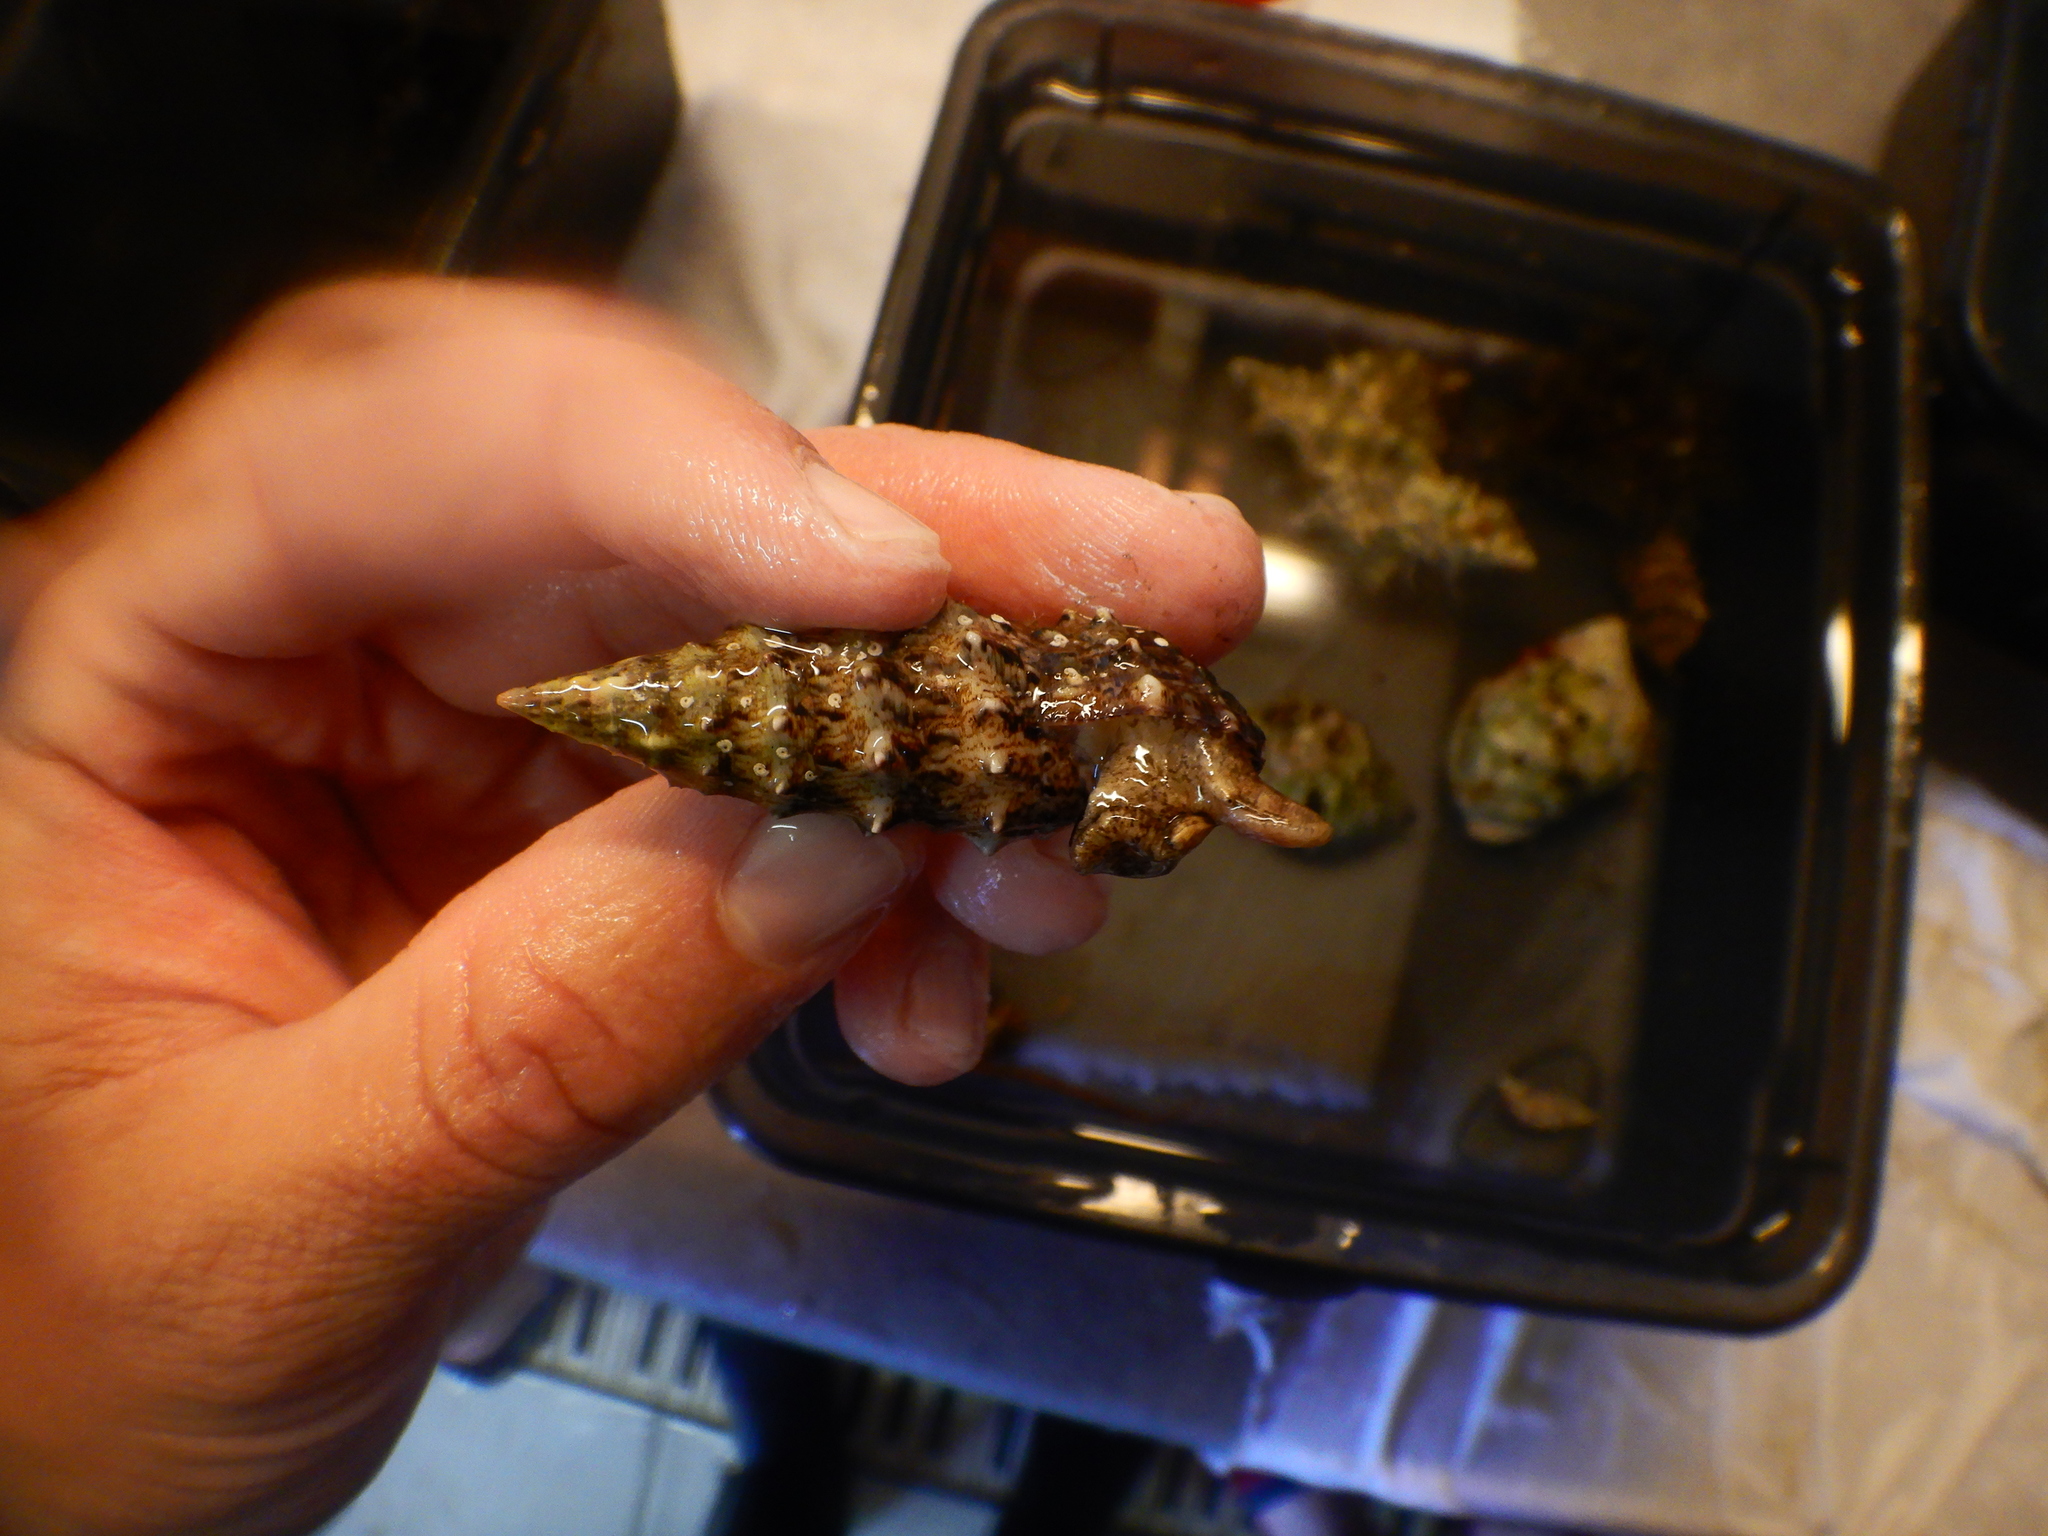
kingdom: Animalia
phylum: Mollusca
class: Gastropoda
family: Cerithiidae
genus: Cerithium
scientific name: Cerithium vulgatum
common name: European cerith
